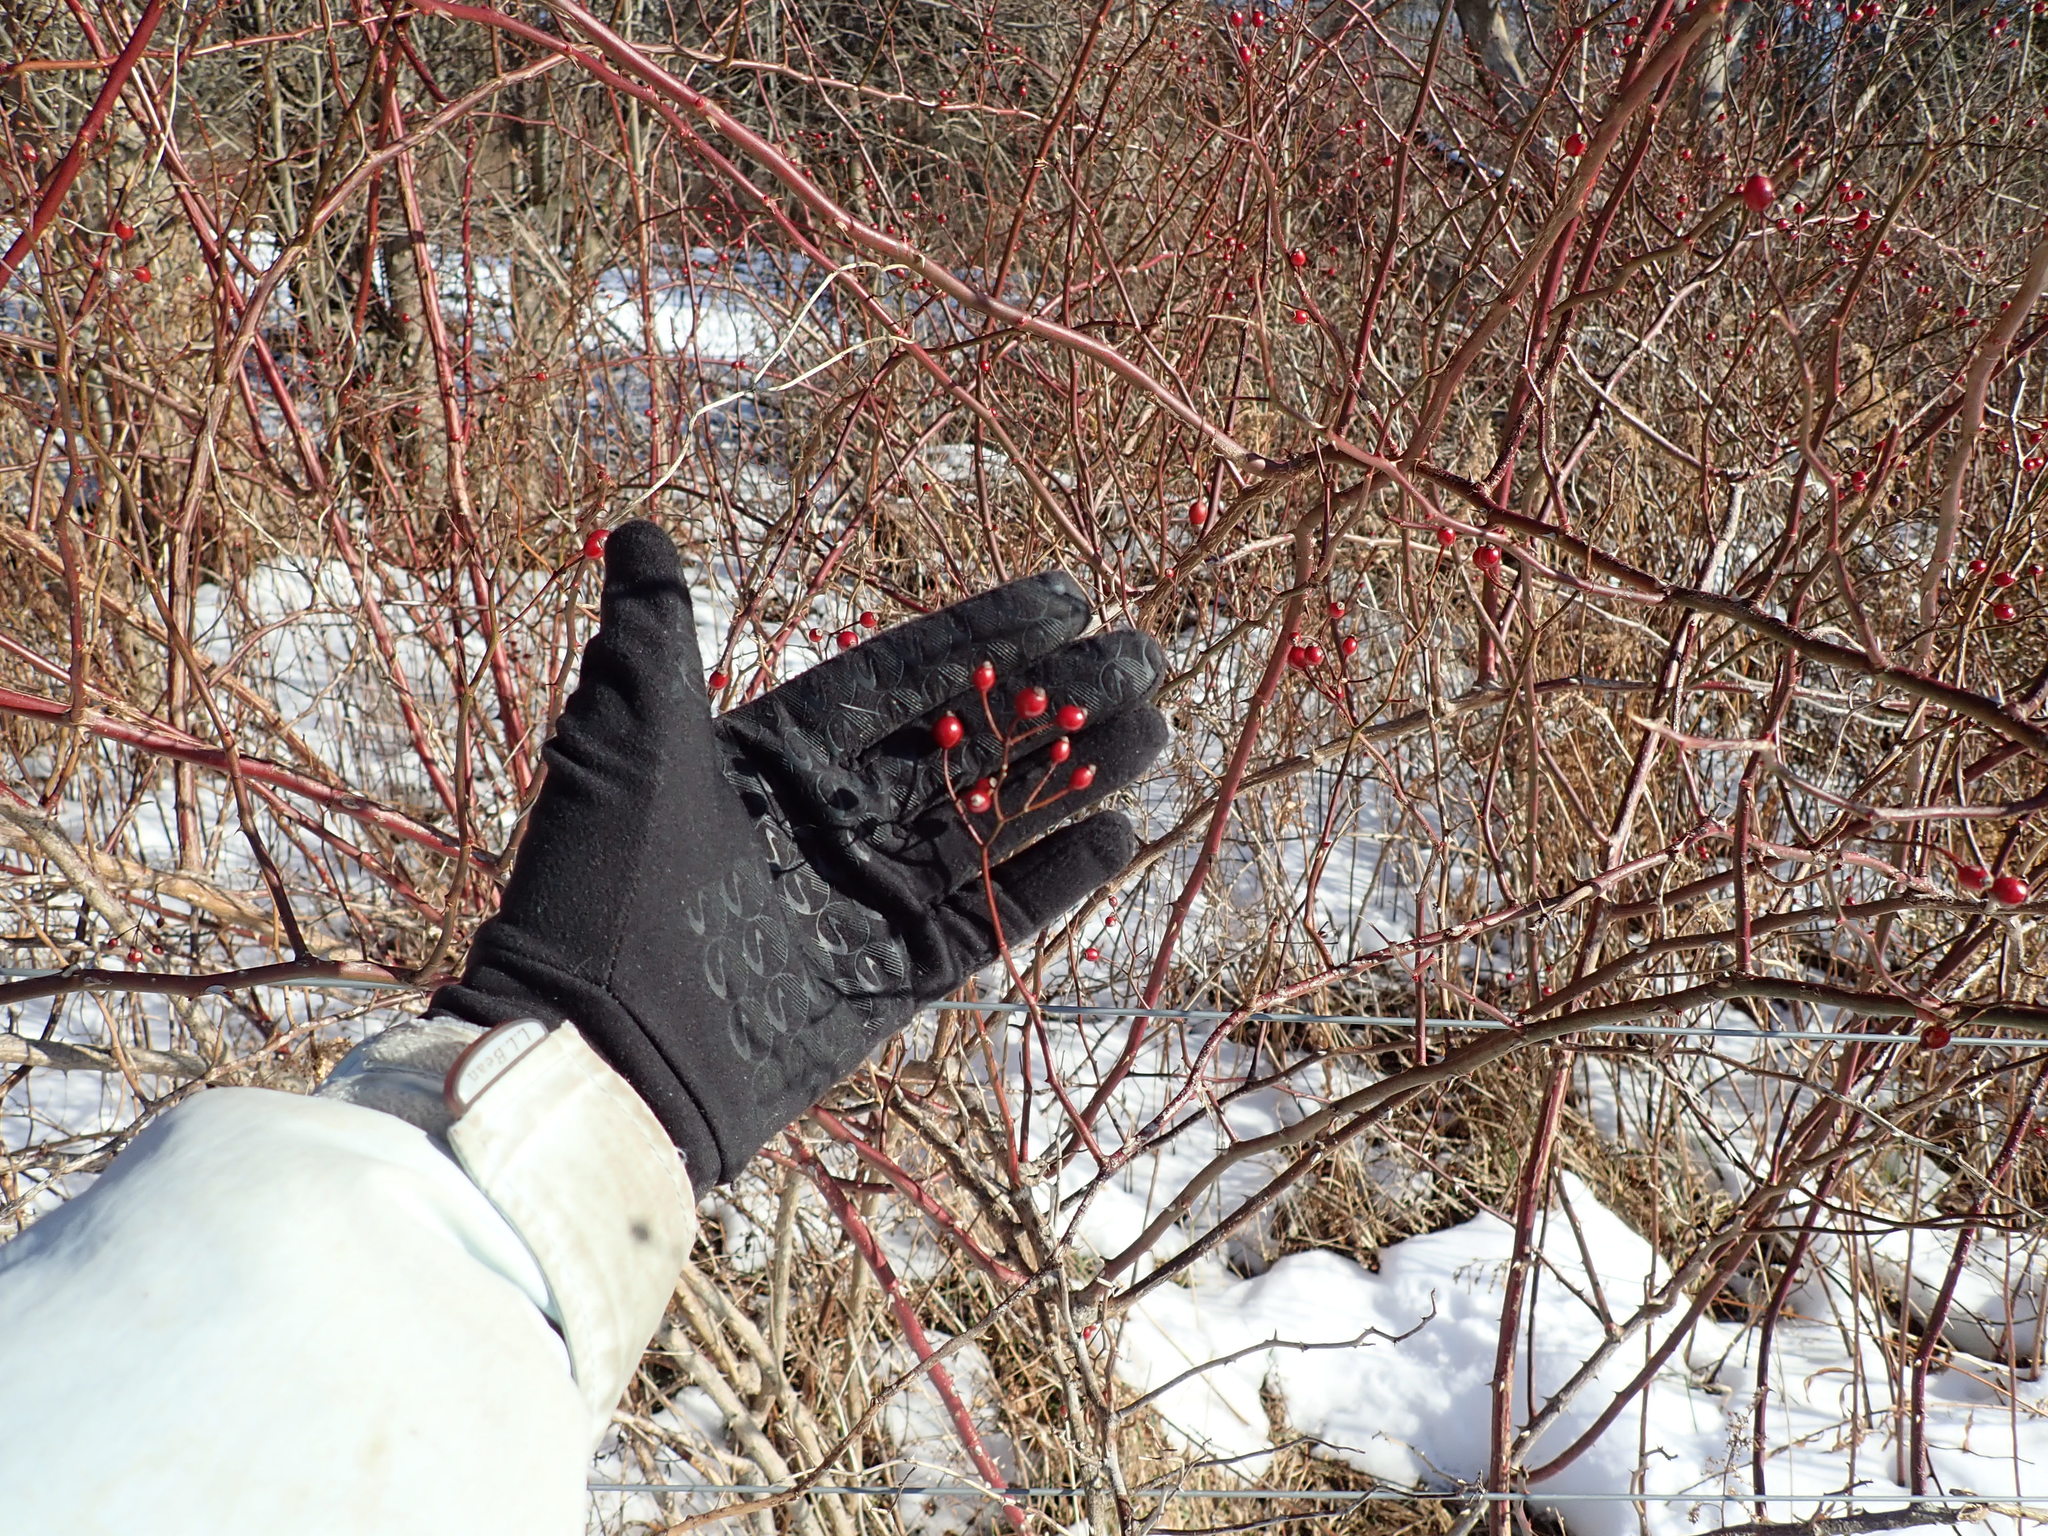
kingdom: Plantae
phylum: Tracheophyta
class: Magnoliopsida
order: Rosales
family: Rosaceae
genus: Rosa
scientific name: Rosa multiflora
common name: Multiflora rose
